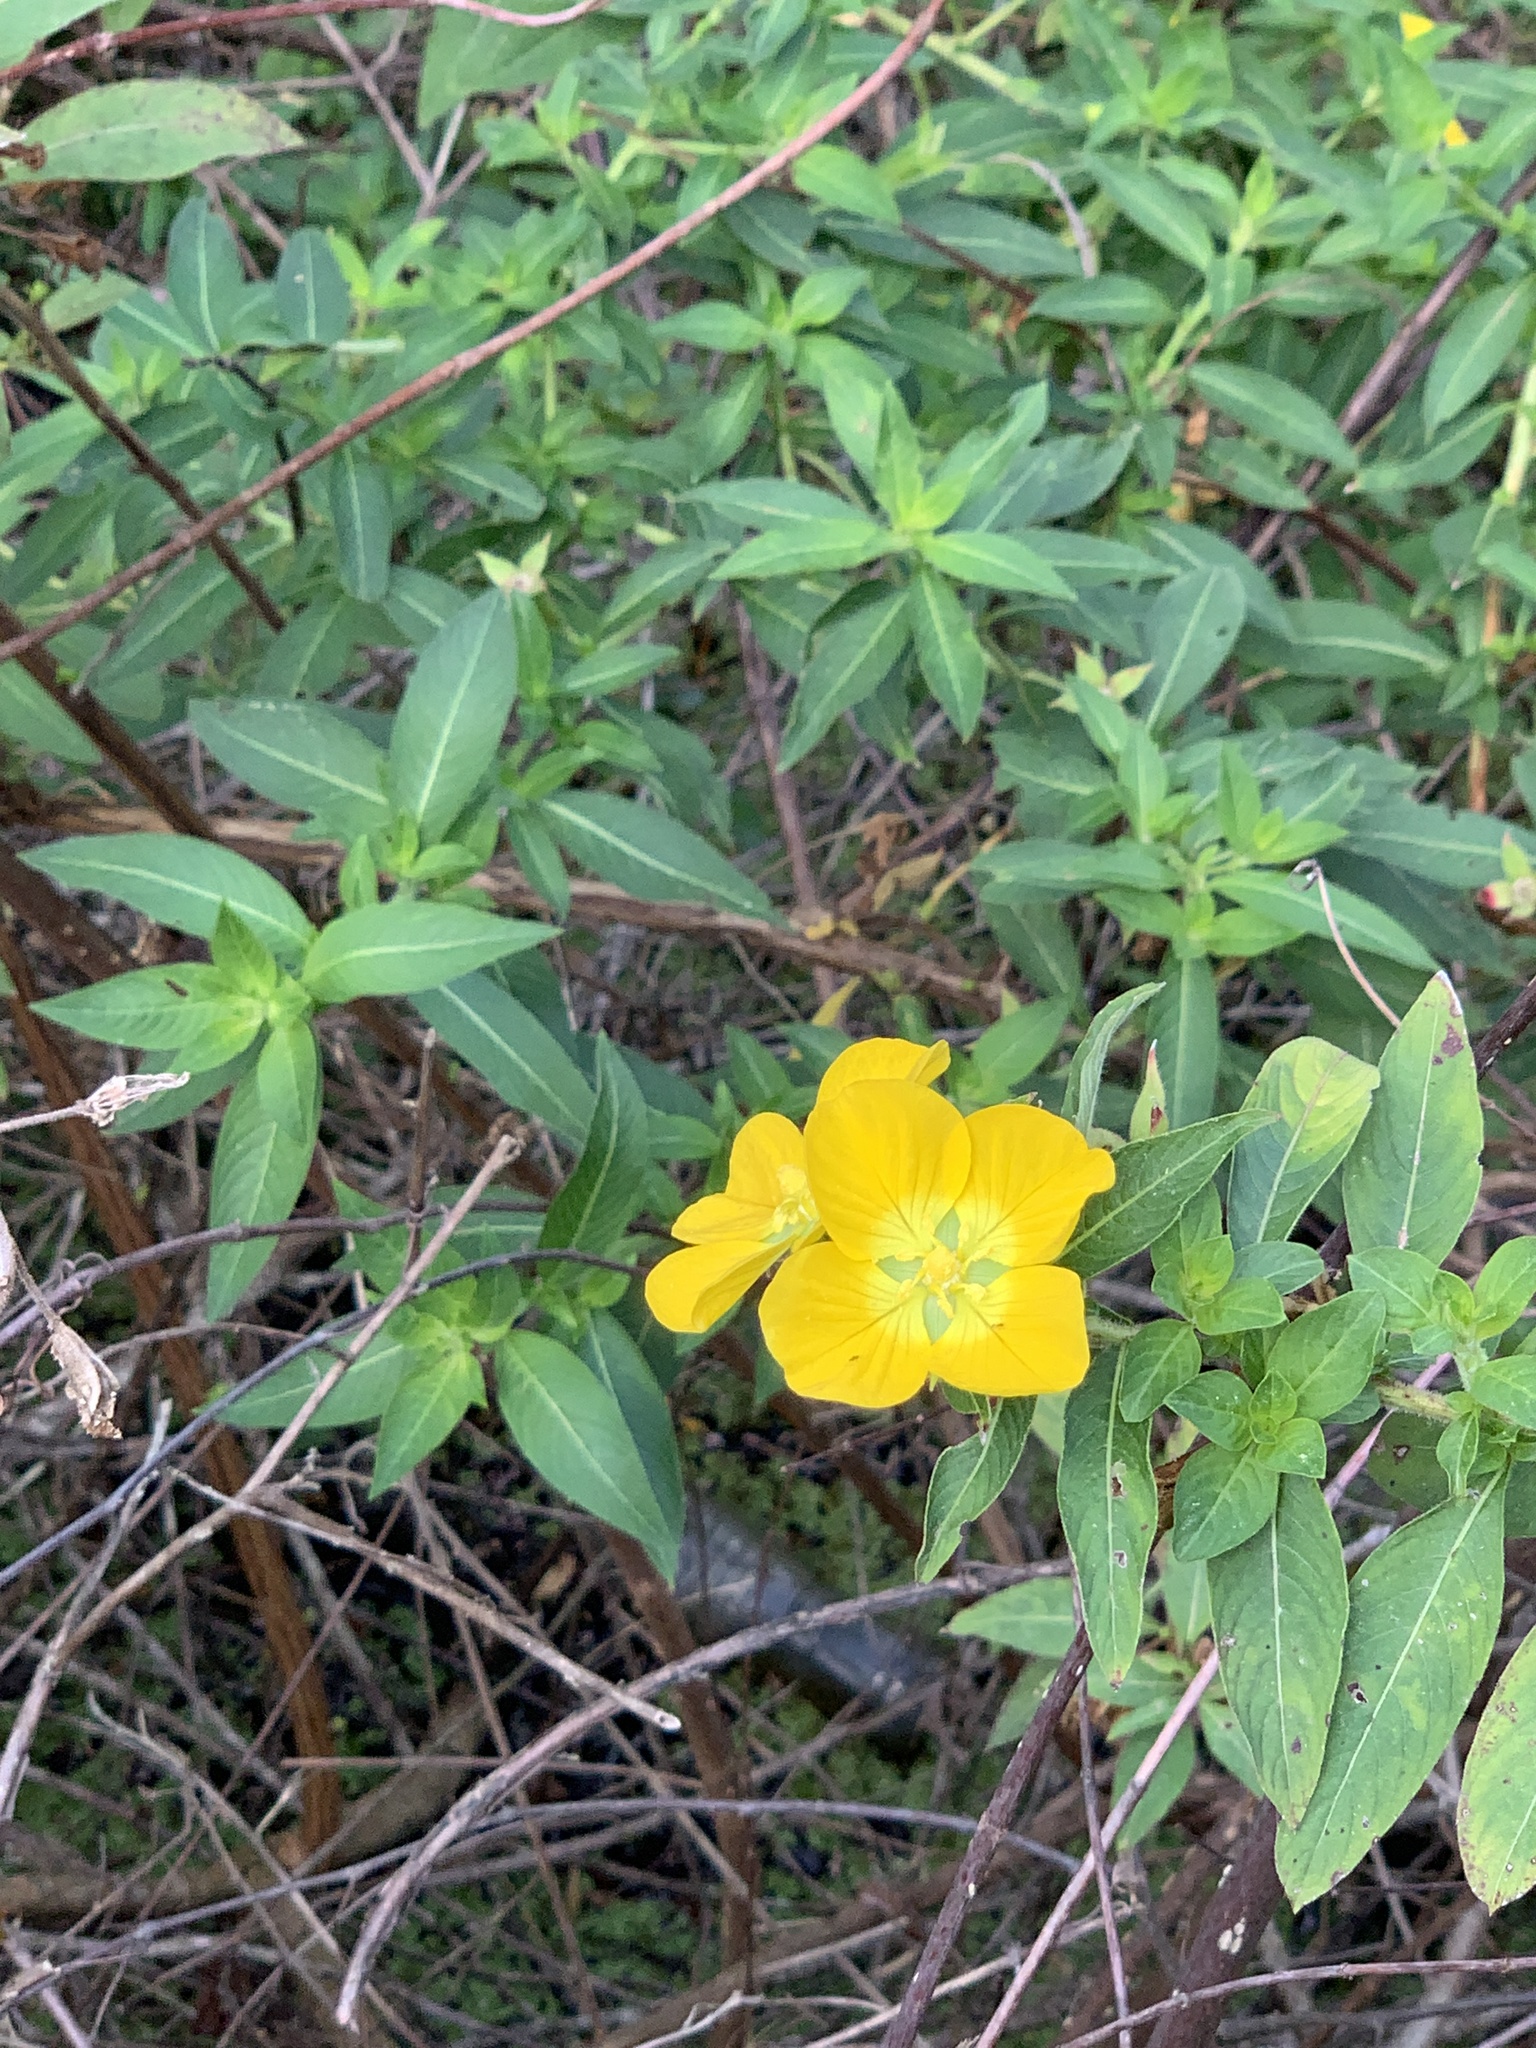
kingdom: Plantae
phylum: Tracheophyta
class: Magnoliopsida
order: Myrtales
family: Onagraceae
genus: Ludwigia
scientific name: Ludwigia peruviana
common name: Peruvian primrose-willow
